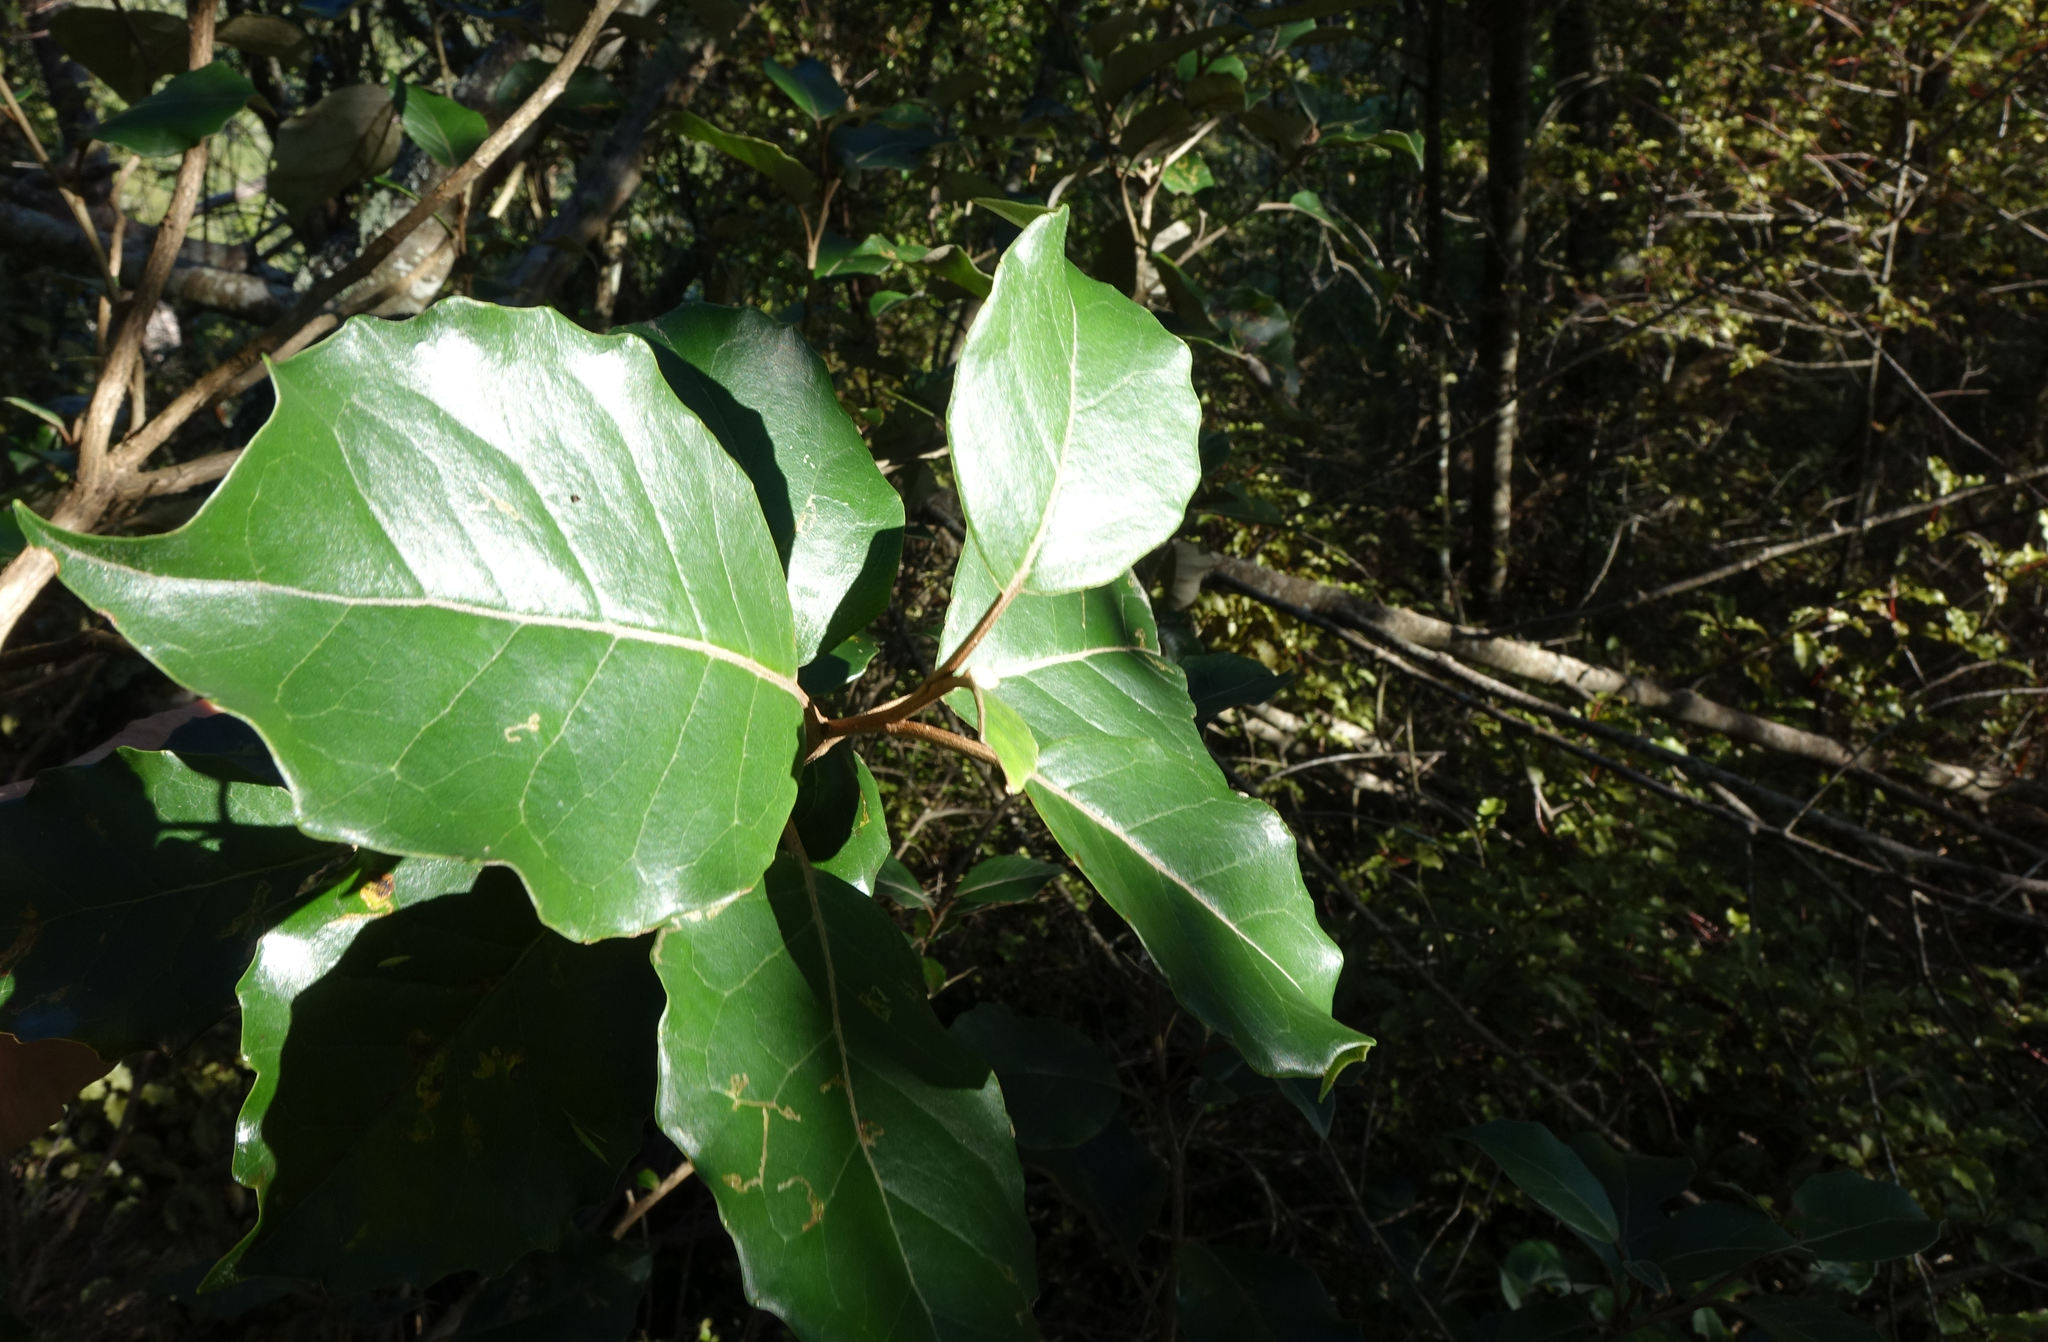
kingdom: Plantae
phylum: Tracheophyta
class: Magnoliopsida
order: Asterales
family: Asteraceae
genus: Olearia
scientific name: Olearia arborescens
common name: Glossy tree daisy
